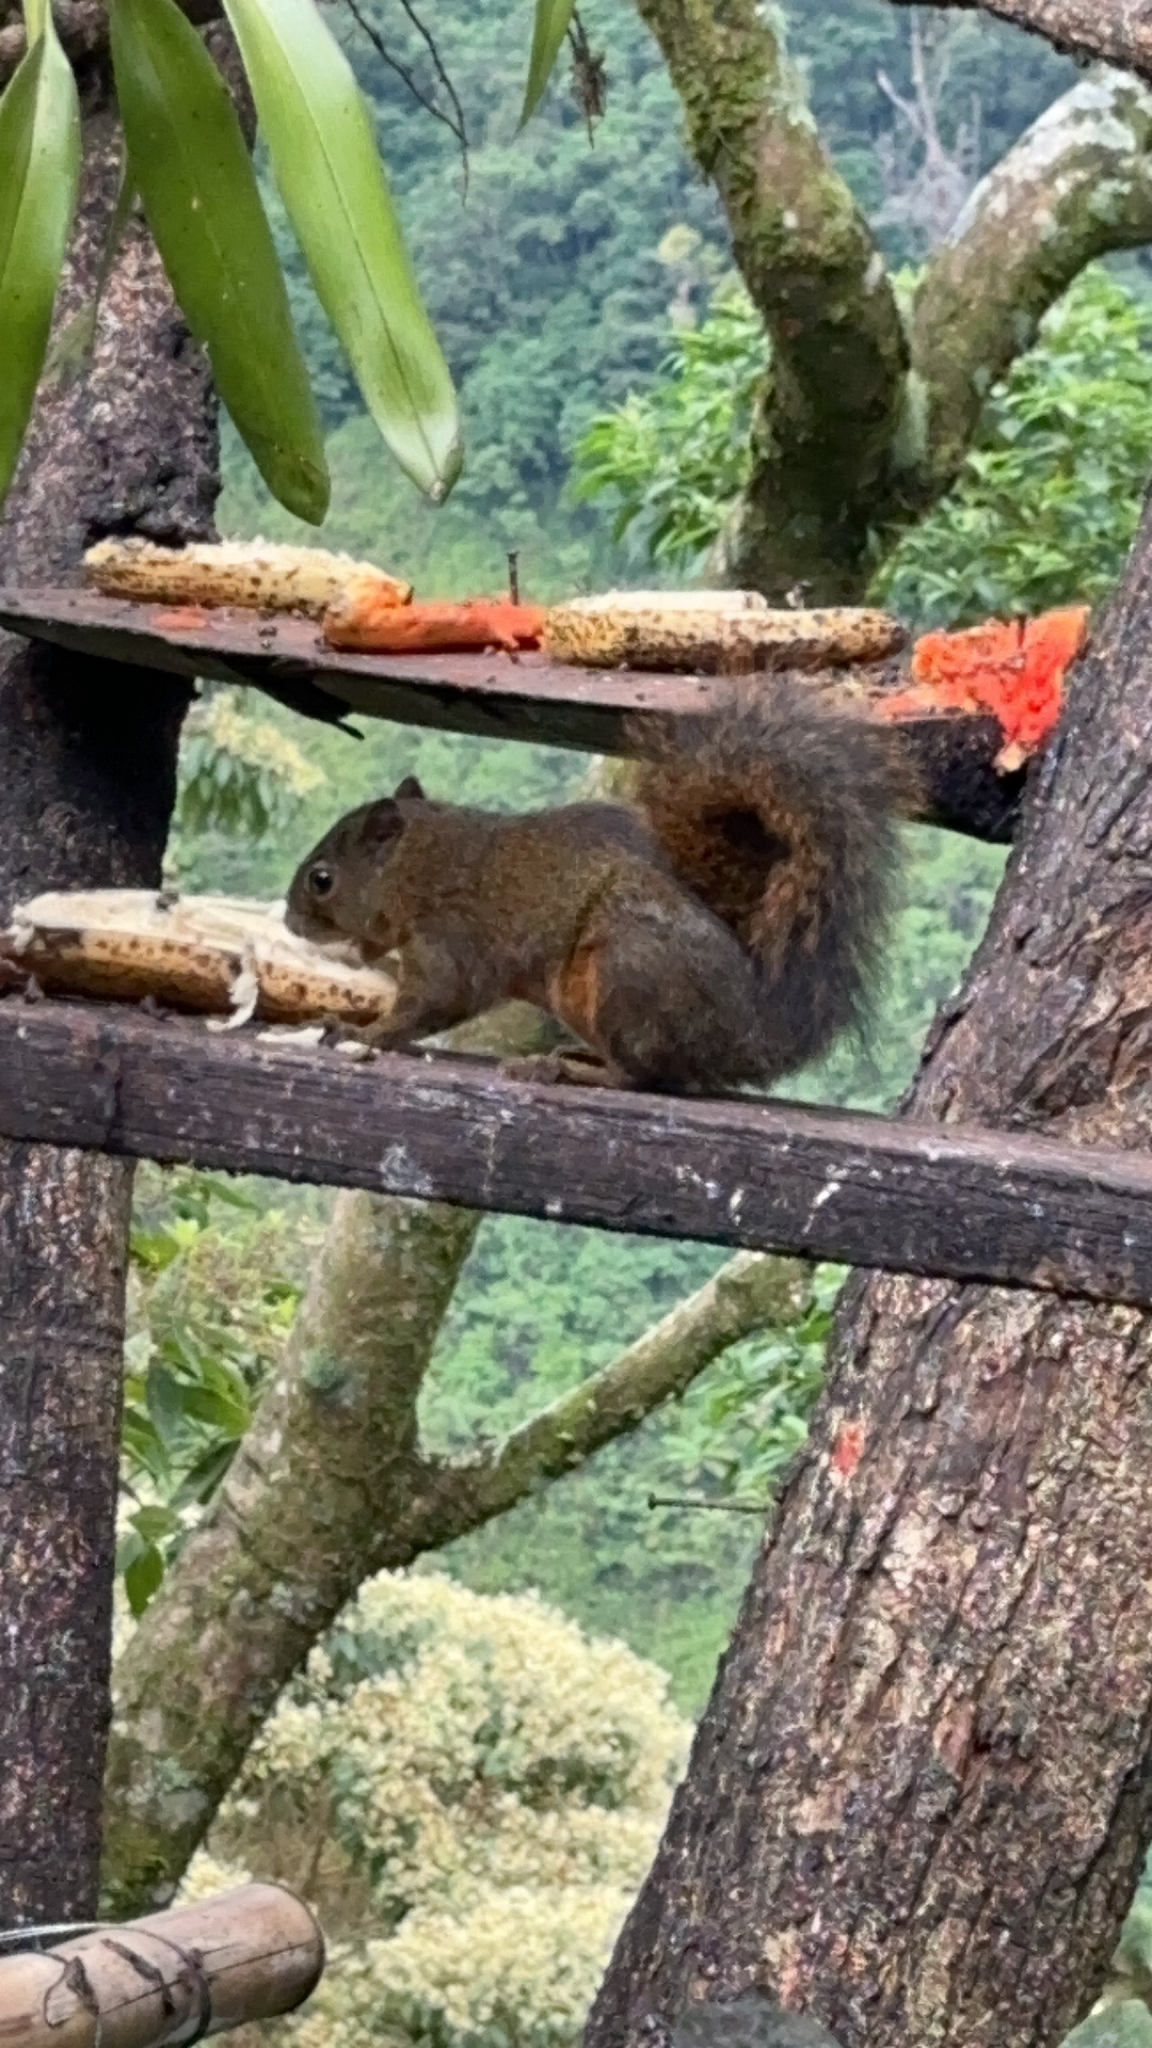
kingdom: Animalia
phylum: Chordata
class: Mammalia
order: Rodentia
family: Sciuridae
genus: Sciurus
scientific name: Sciurus granatensis
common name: Red-tailed squirrel
